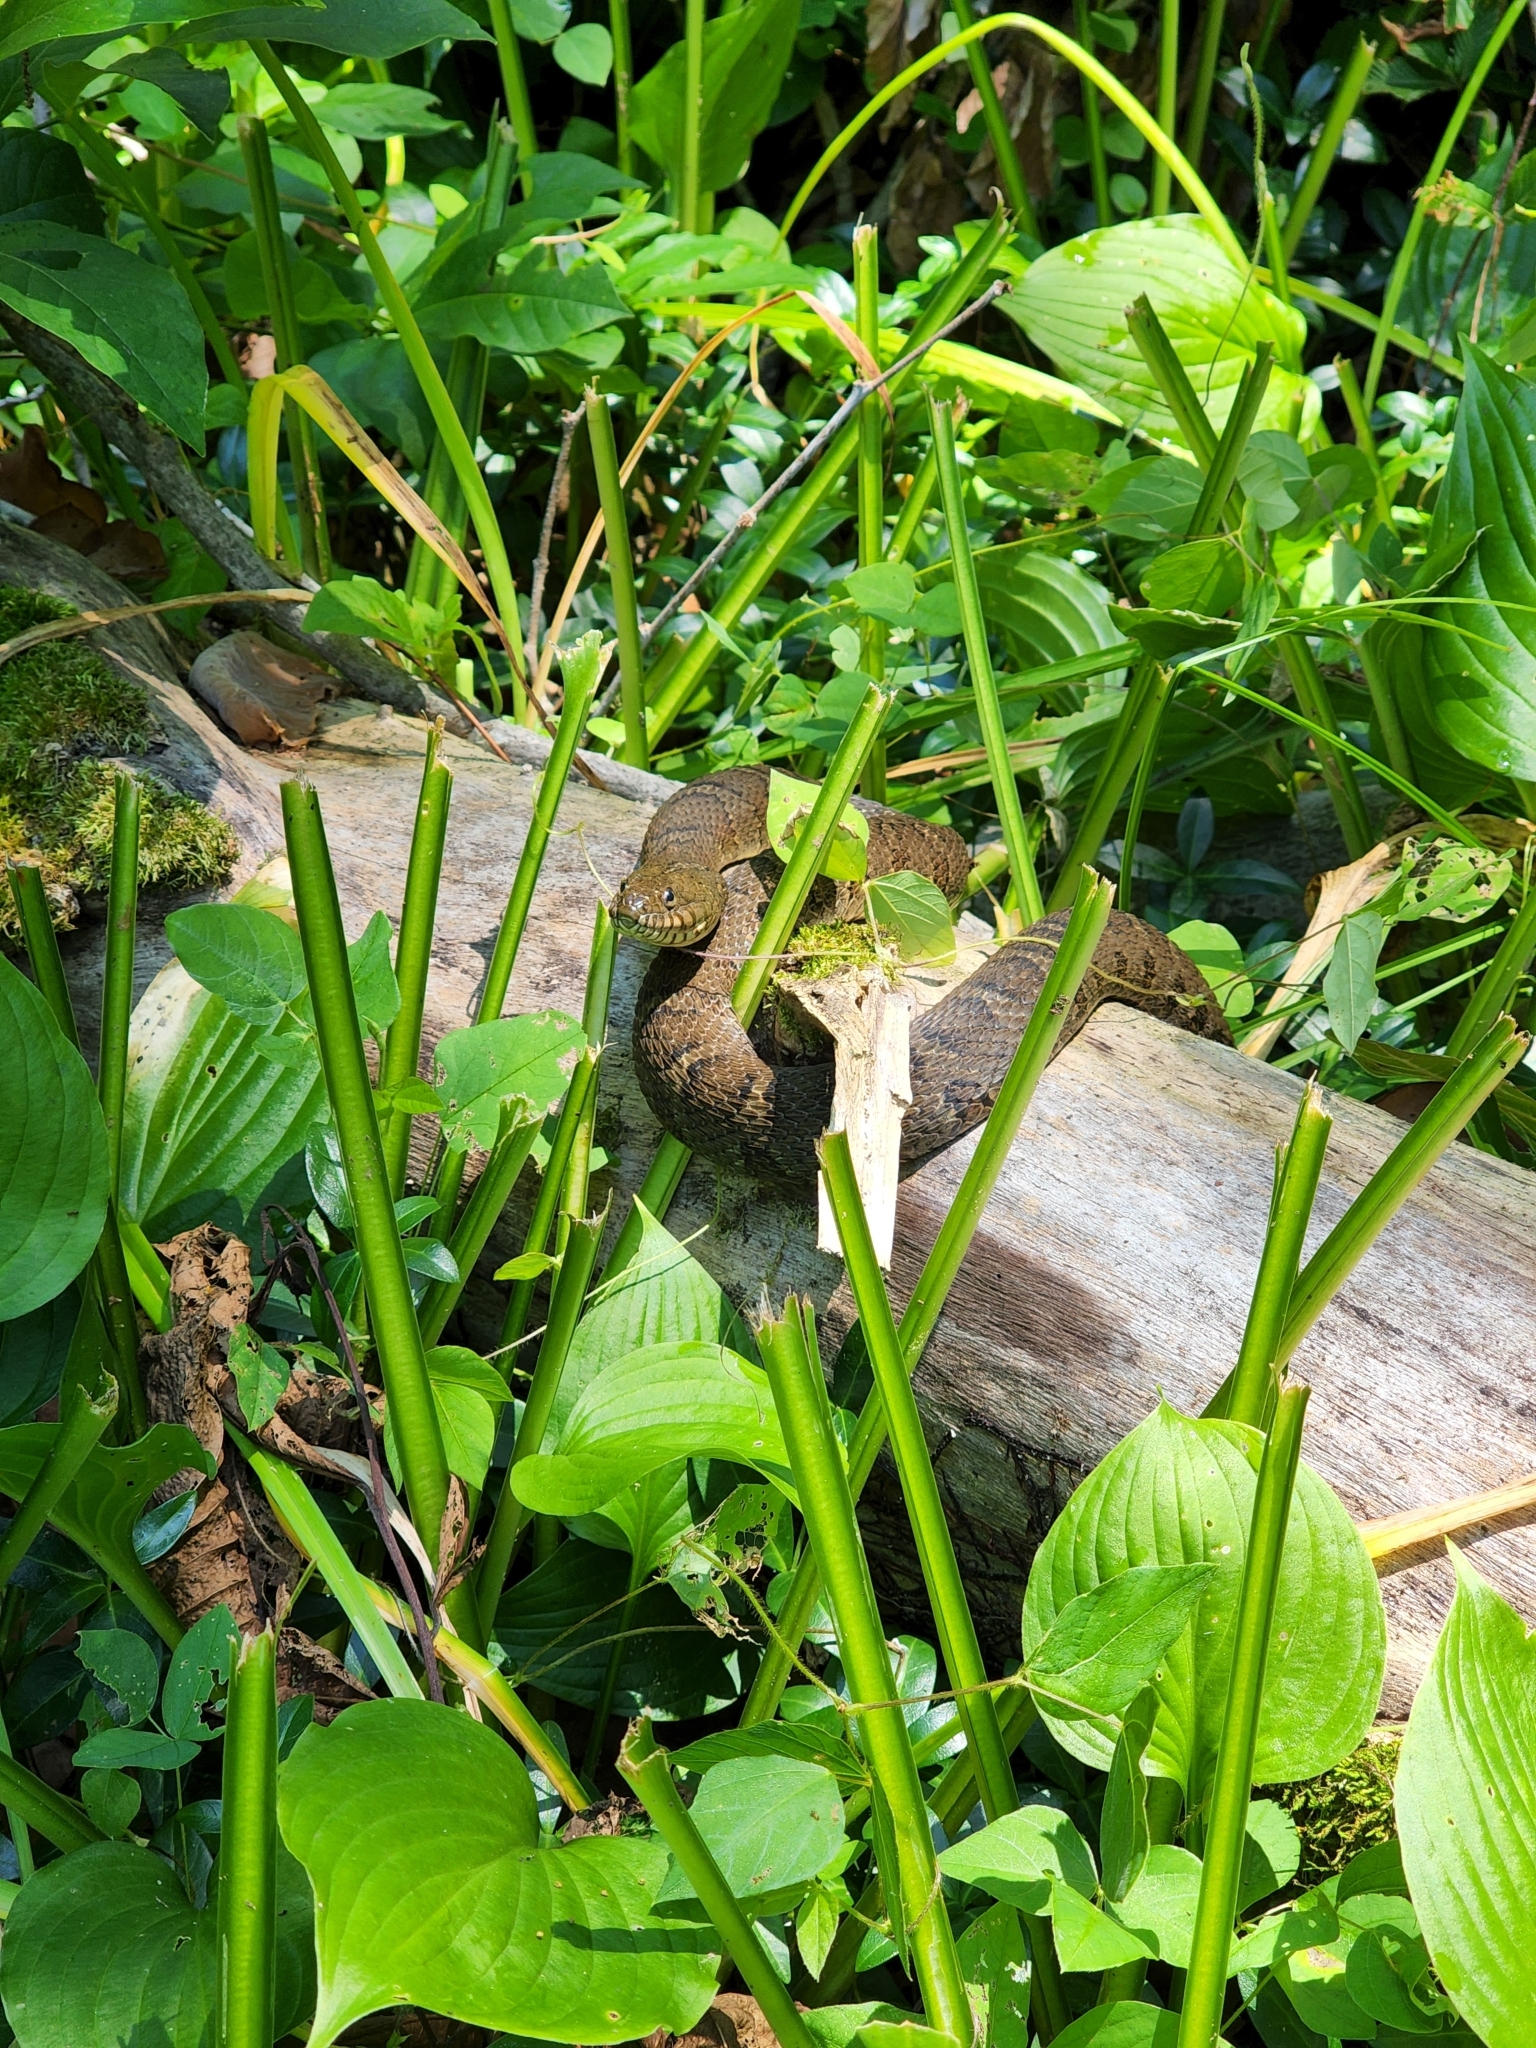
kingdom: Animalia
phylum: Chordata
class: Squamata
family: Colubridae
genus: Nerodia
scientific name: Nerodia sipedon
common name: Northern water snake
